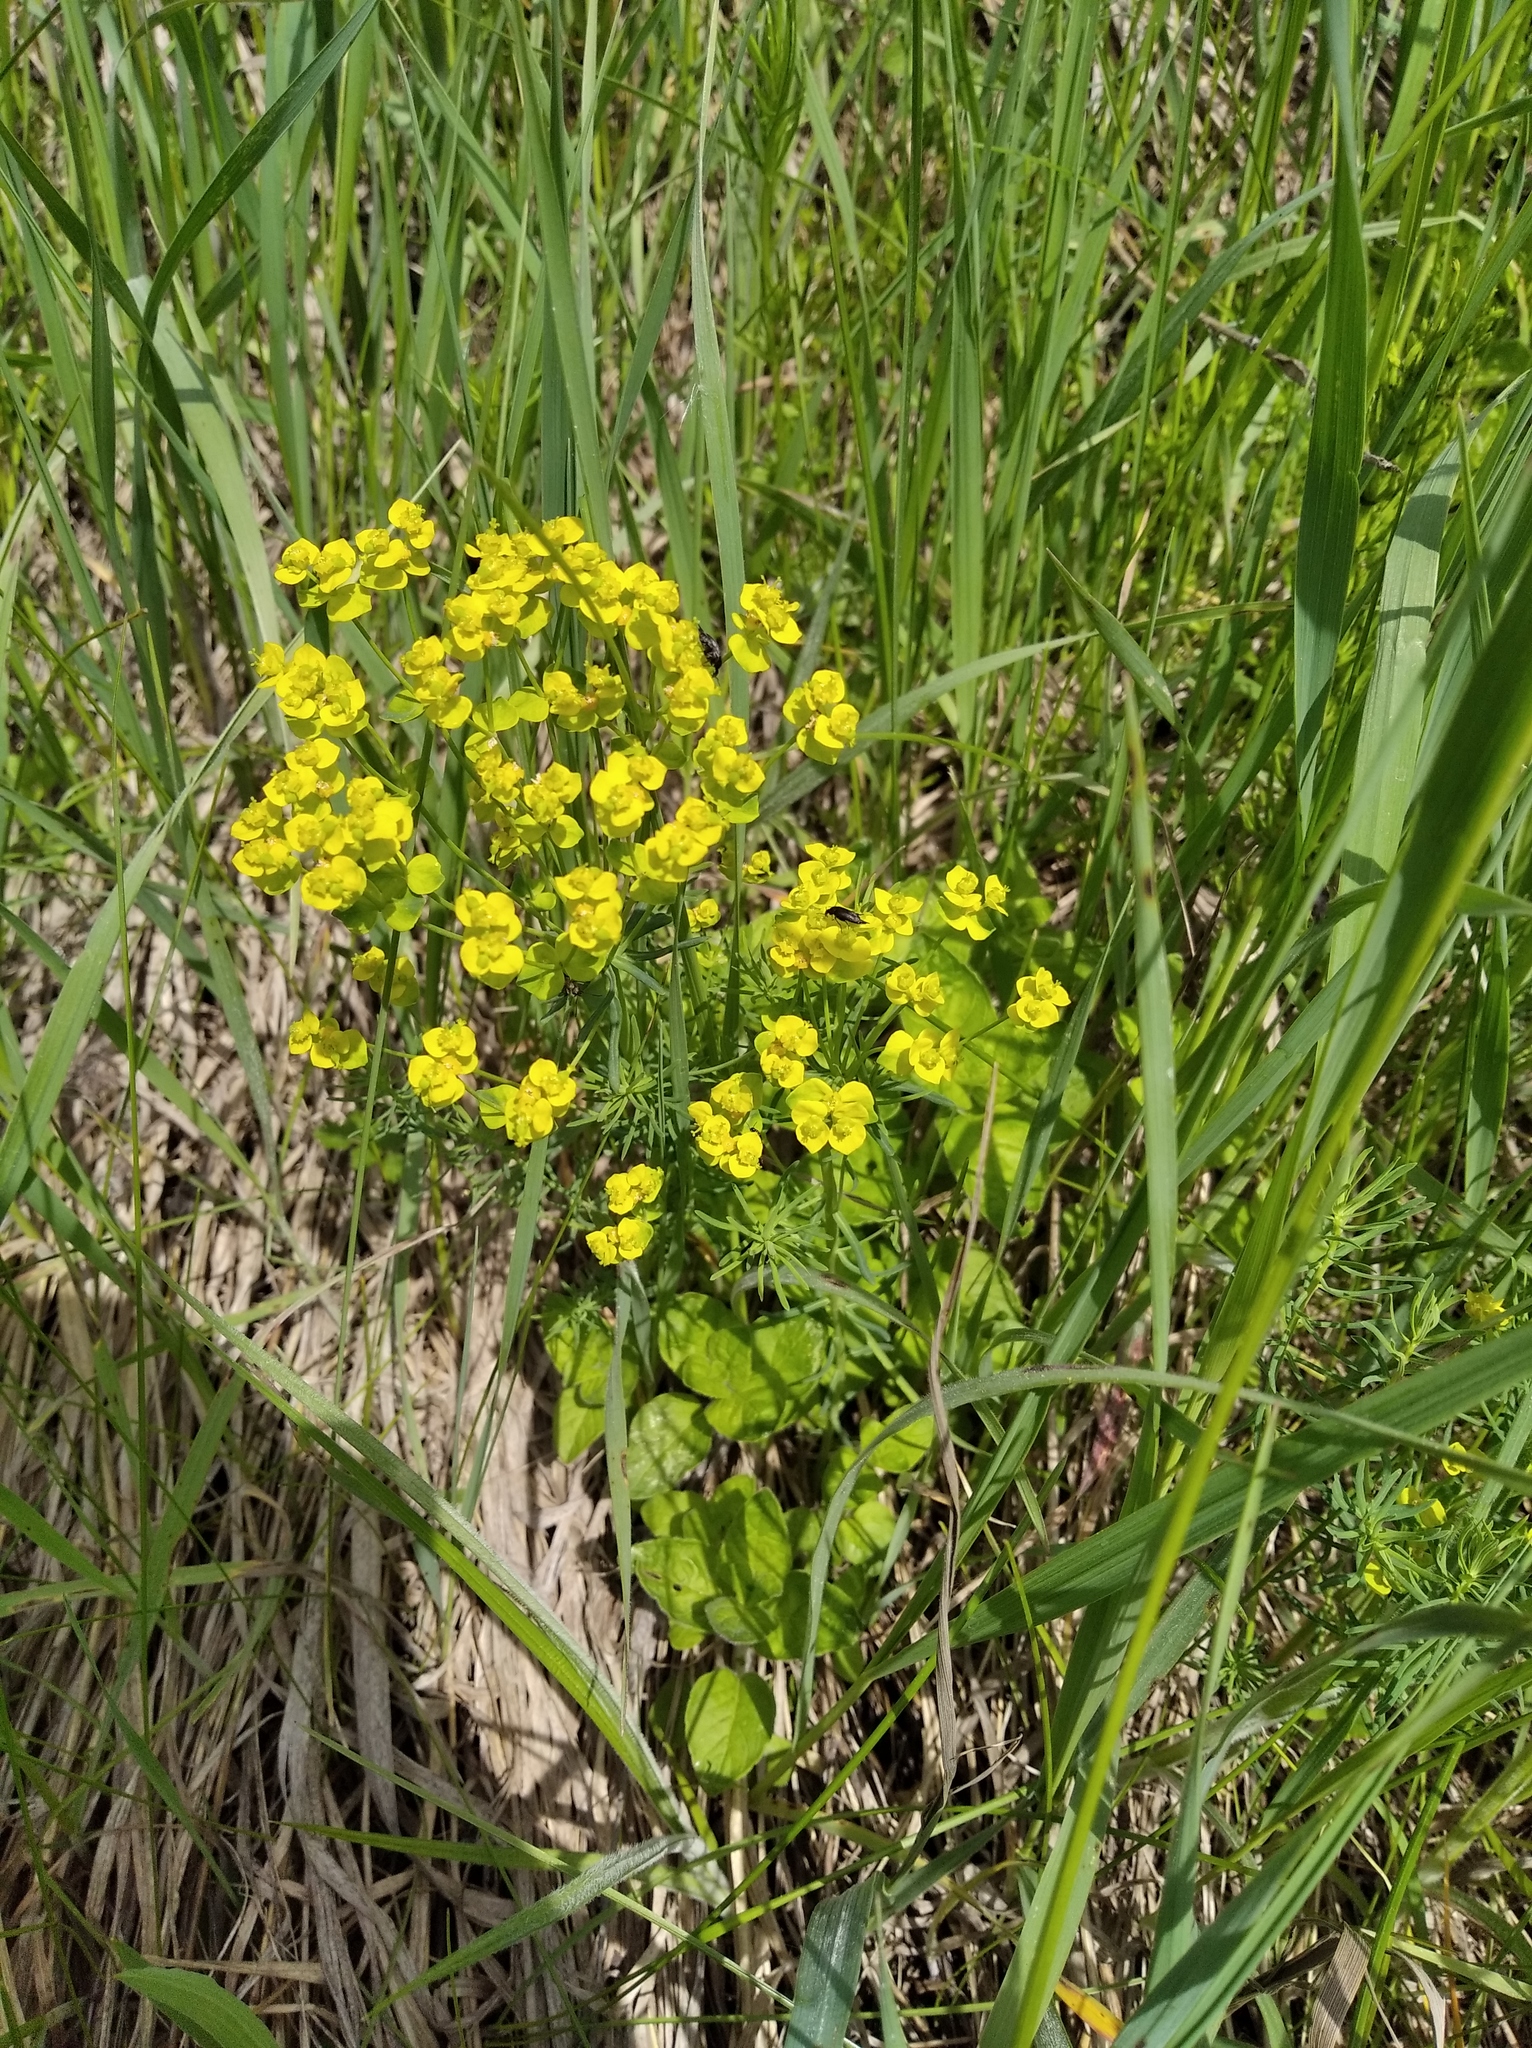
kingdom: Plantae
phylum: Tracheophyta
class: Magnoliopsida
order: Malpighiales
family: Euphorbiaceae
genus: Euphorbia
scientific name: Euphorbia cyparissias
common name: Cypress spurge
